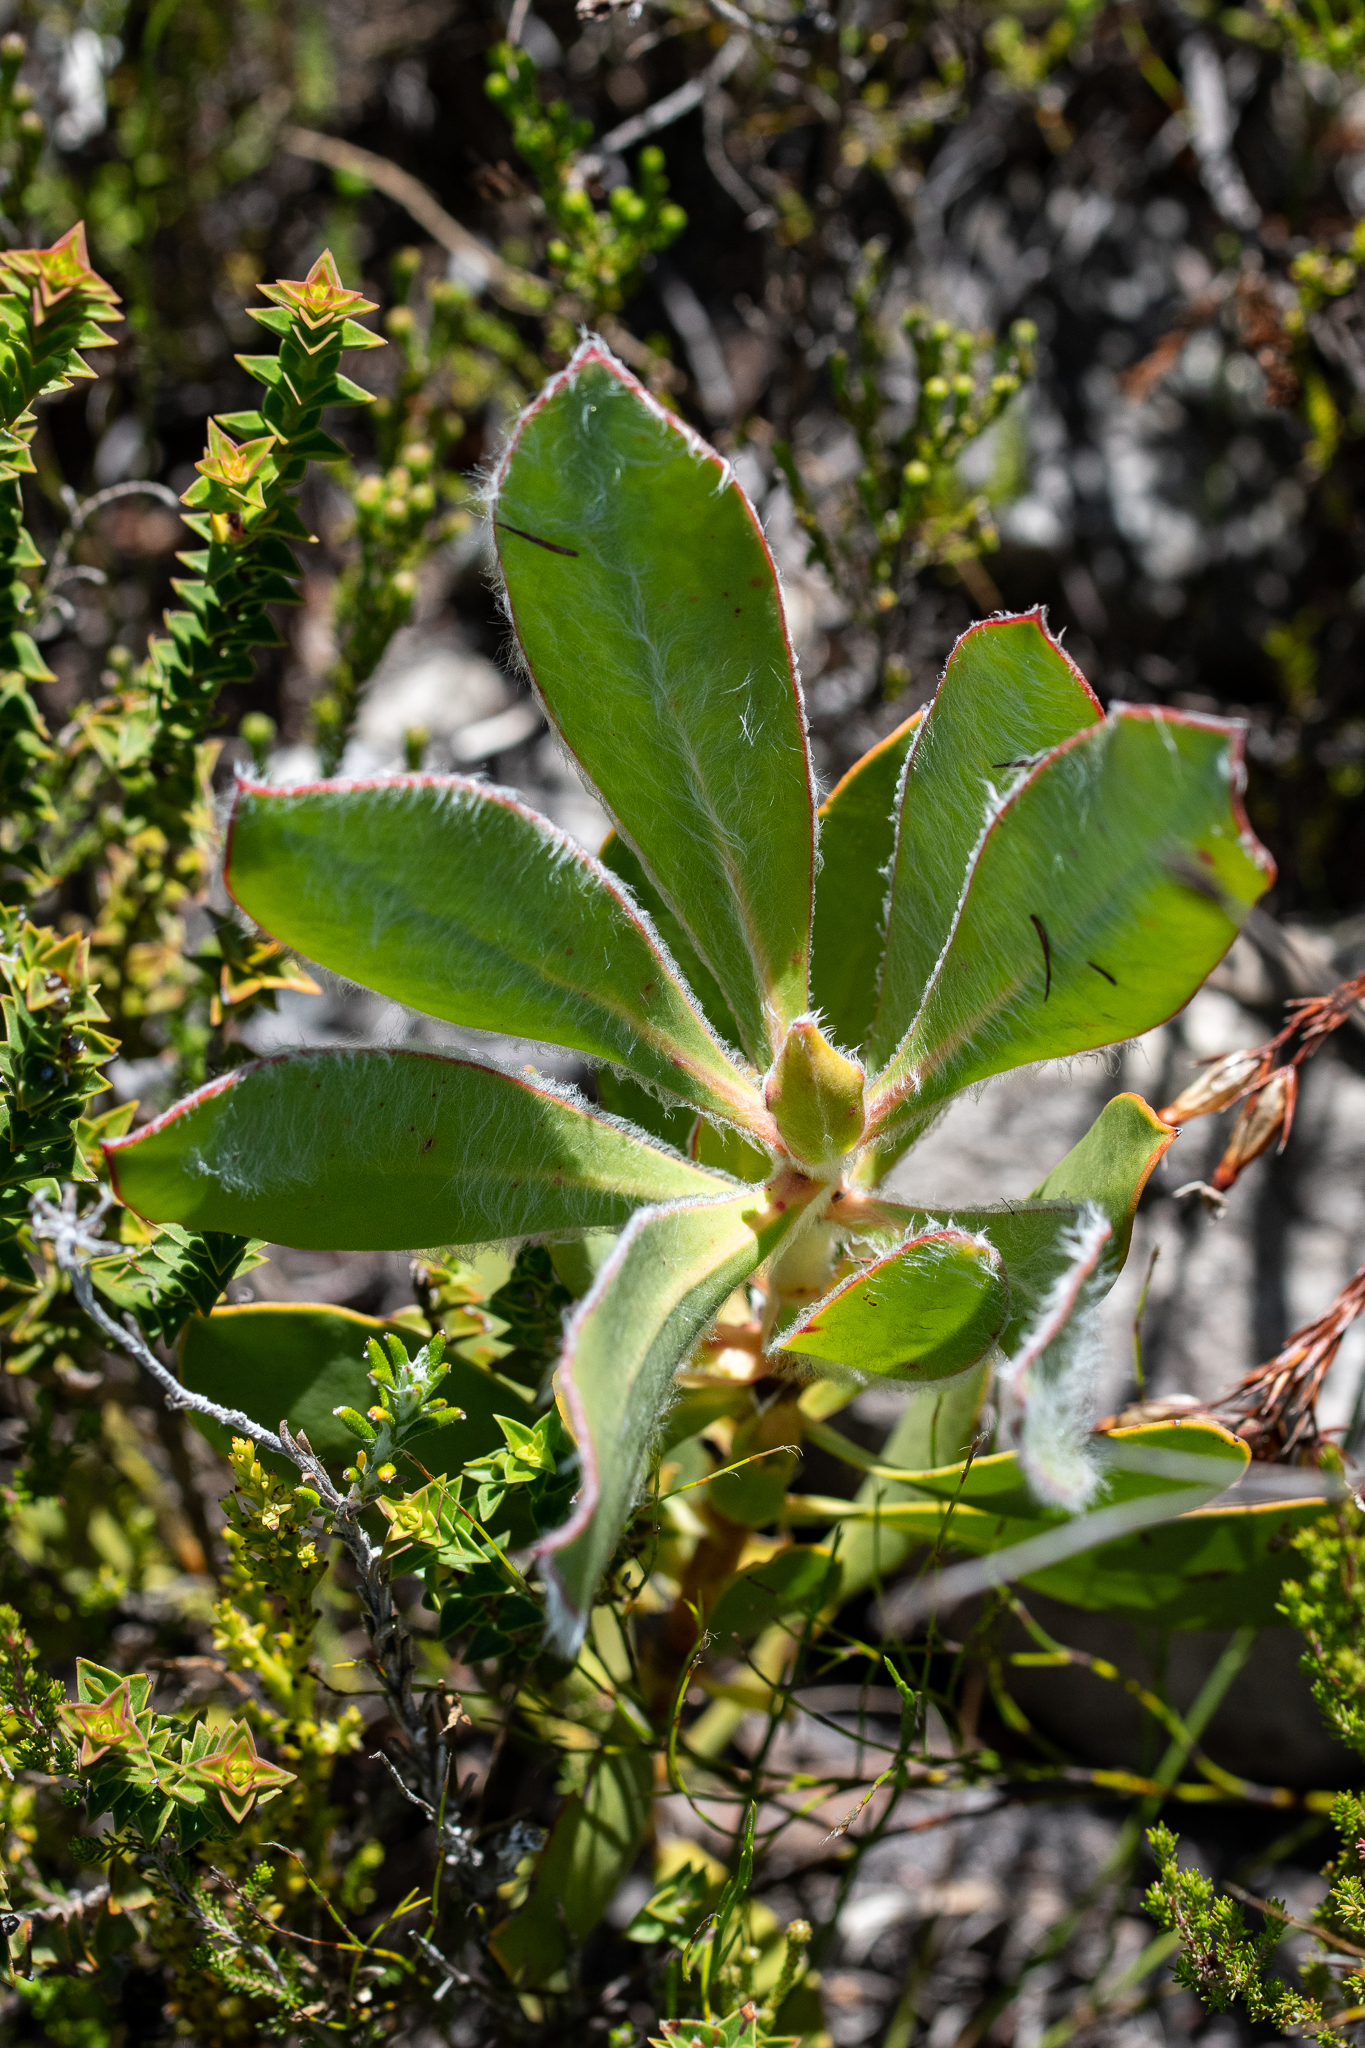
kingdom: Plantae
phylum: Tracheophyta
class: Magnoliopsida
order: Proteales
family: Proteaceae
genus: Protea
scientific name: Protea speciosa
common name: Brown-beard sugarbush
